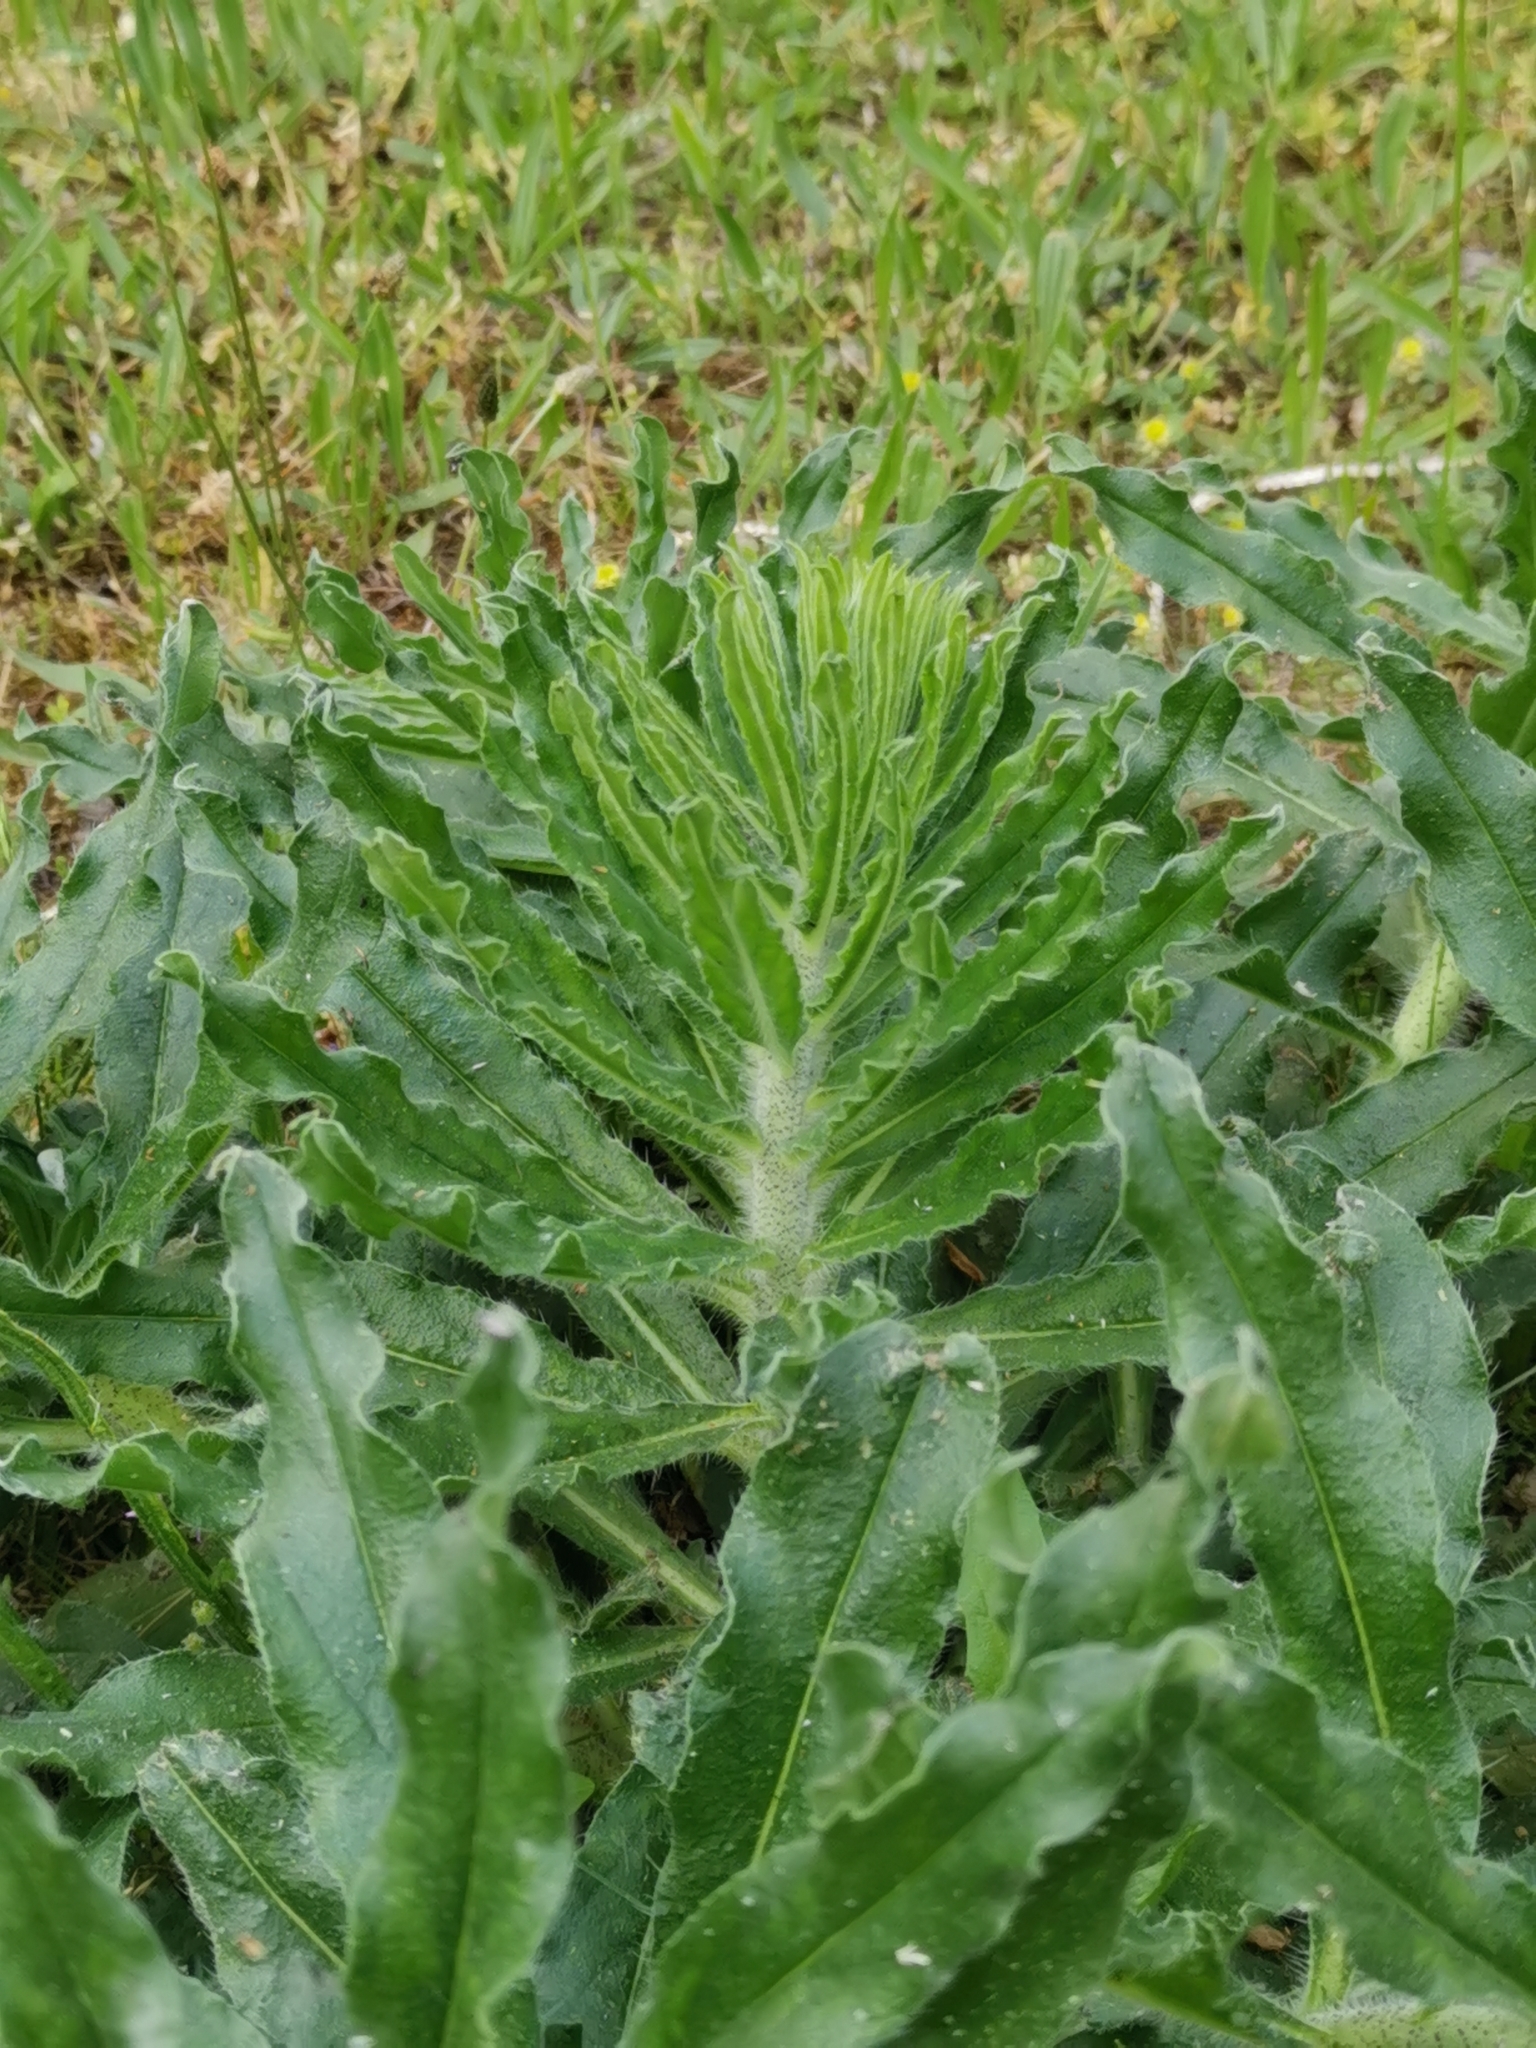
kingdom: Plantae
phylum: Tracheophyta
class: Magnoliopsida
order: Boraginales
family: Boraginaceae
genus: Echium
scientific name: Echium vulgare
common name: Common viper's bugloss
